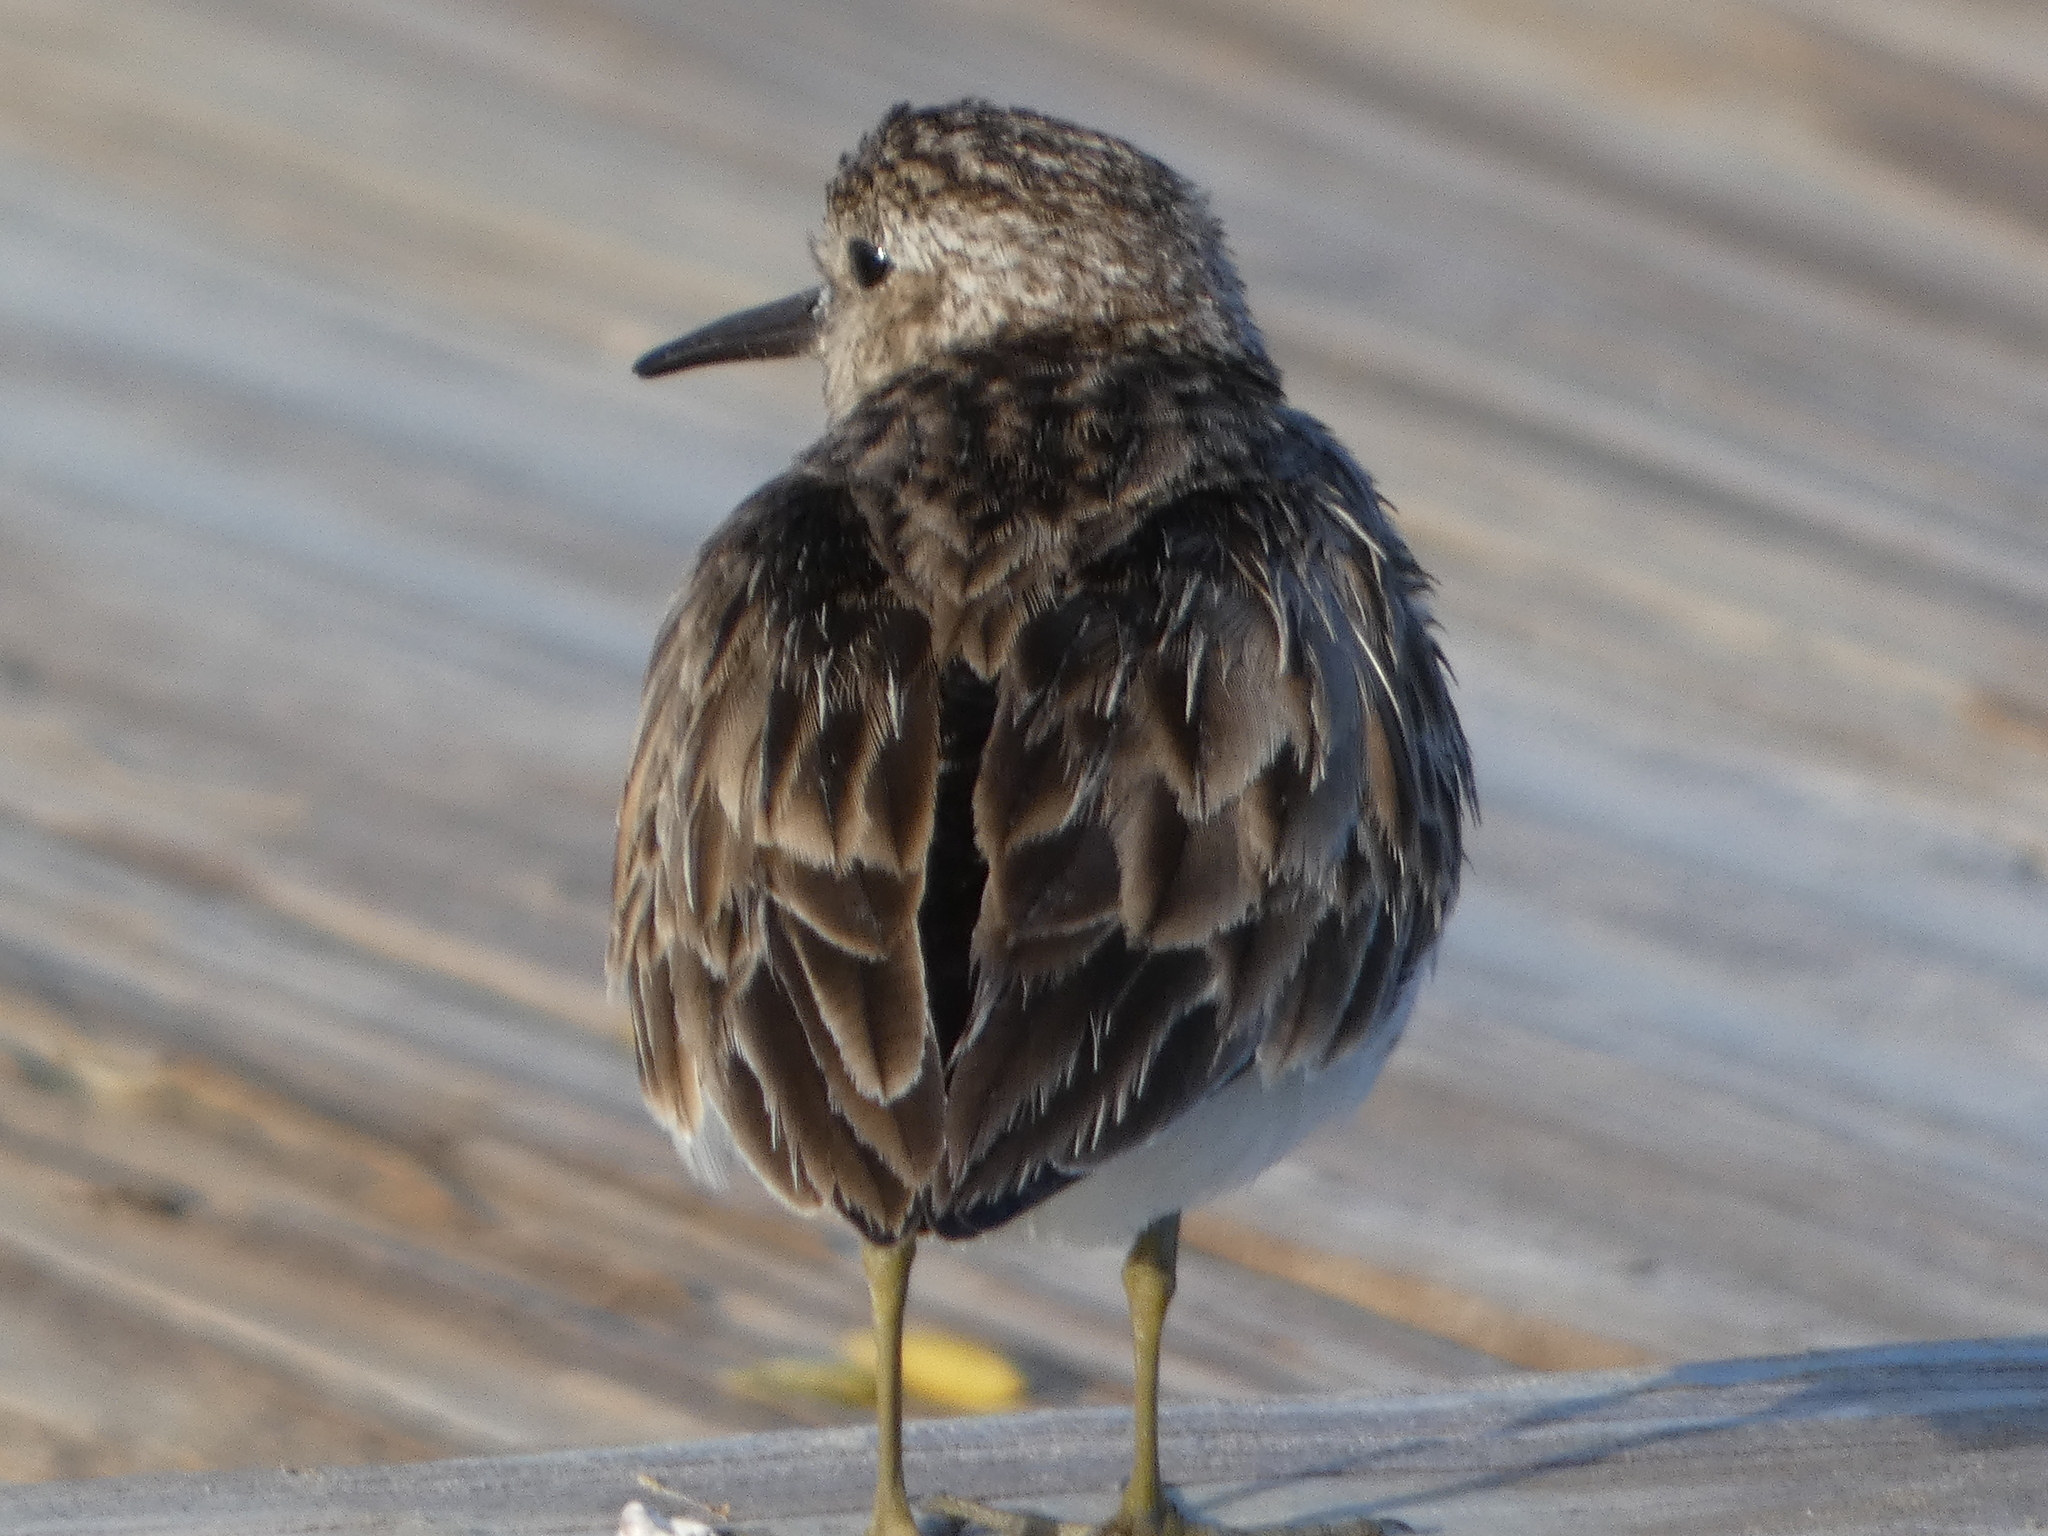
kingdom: Animalia
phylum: Chordata
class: Aves
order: Charadriiformes
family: Scolopacidae
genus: Calidris
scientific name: Calidris minutilla
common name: Least sandpiper
